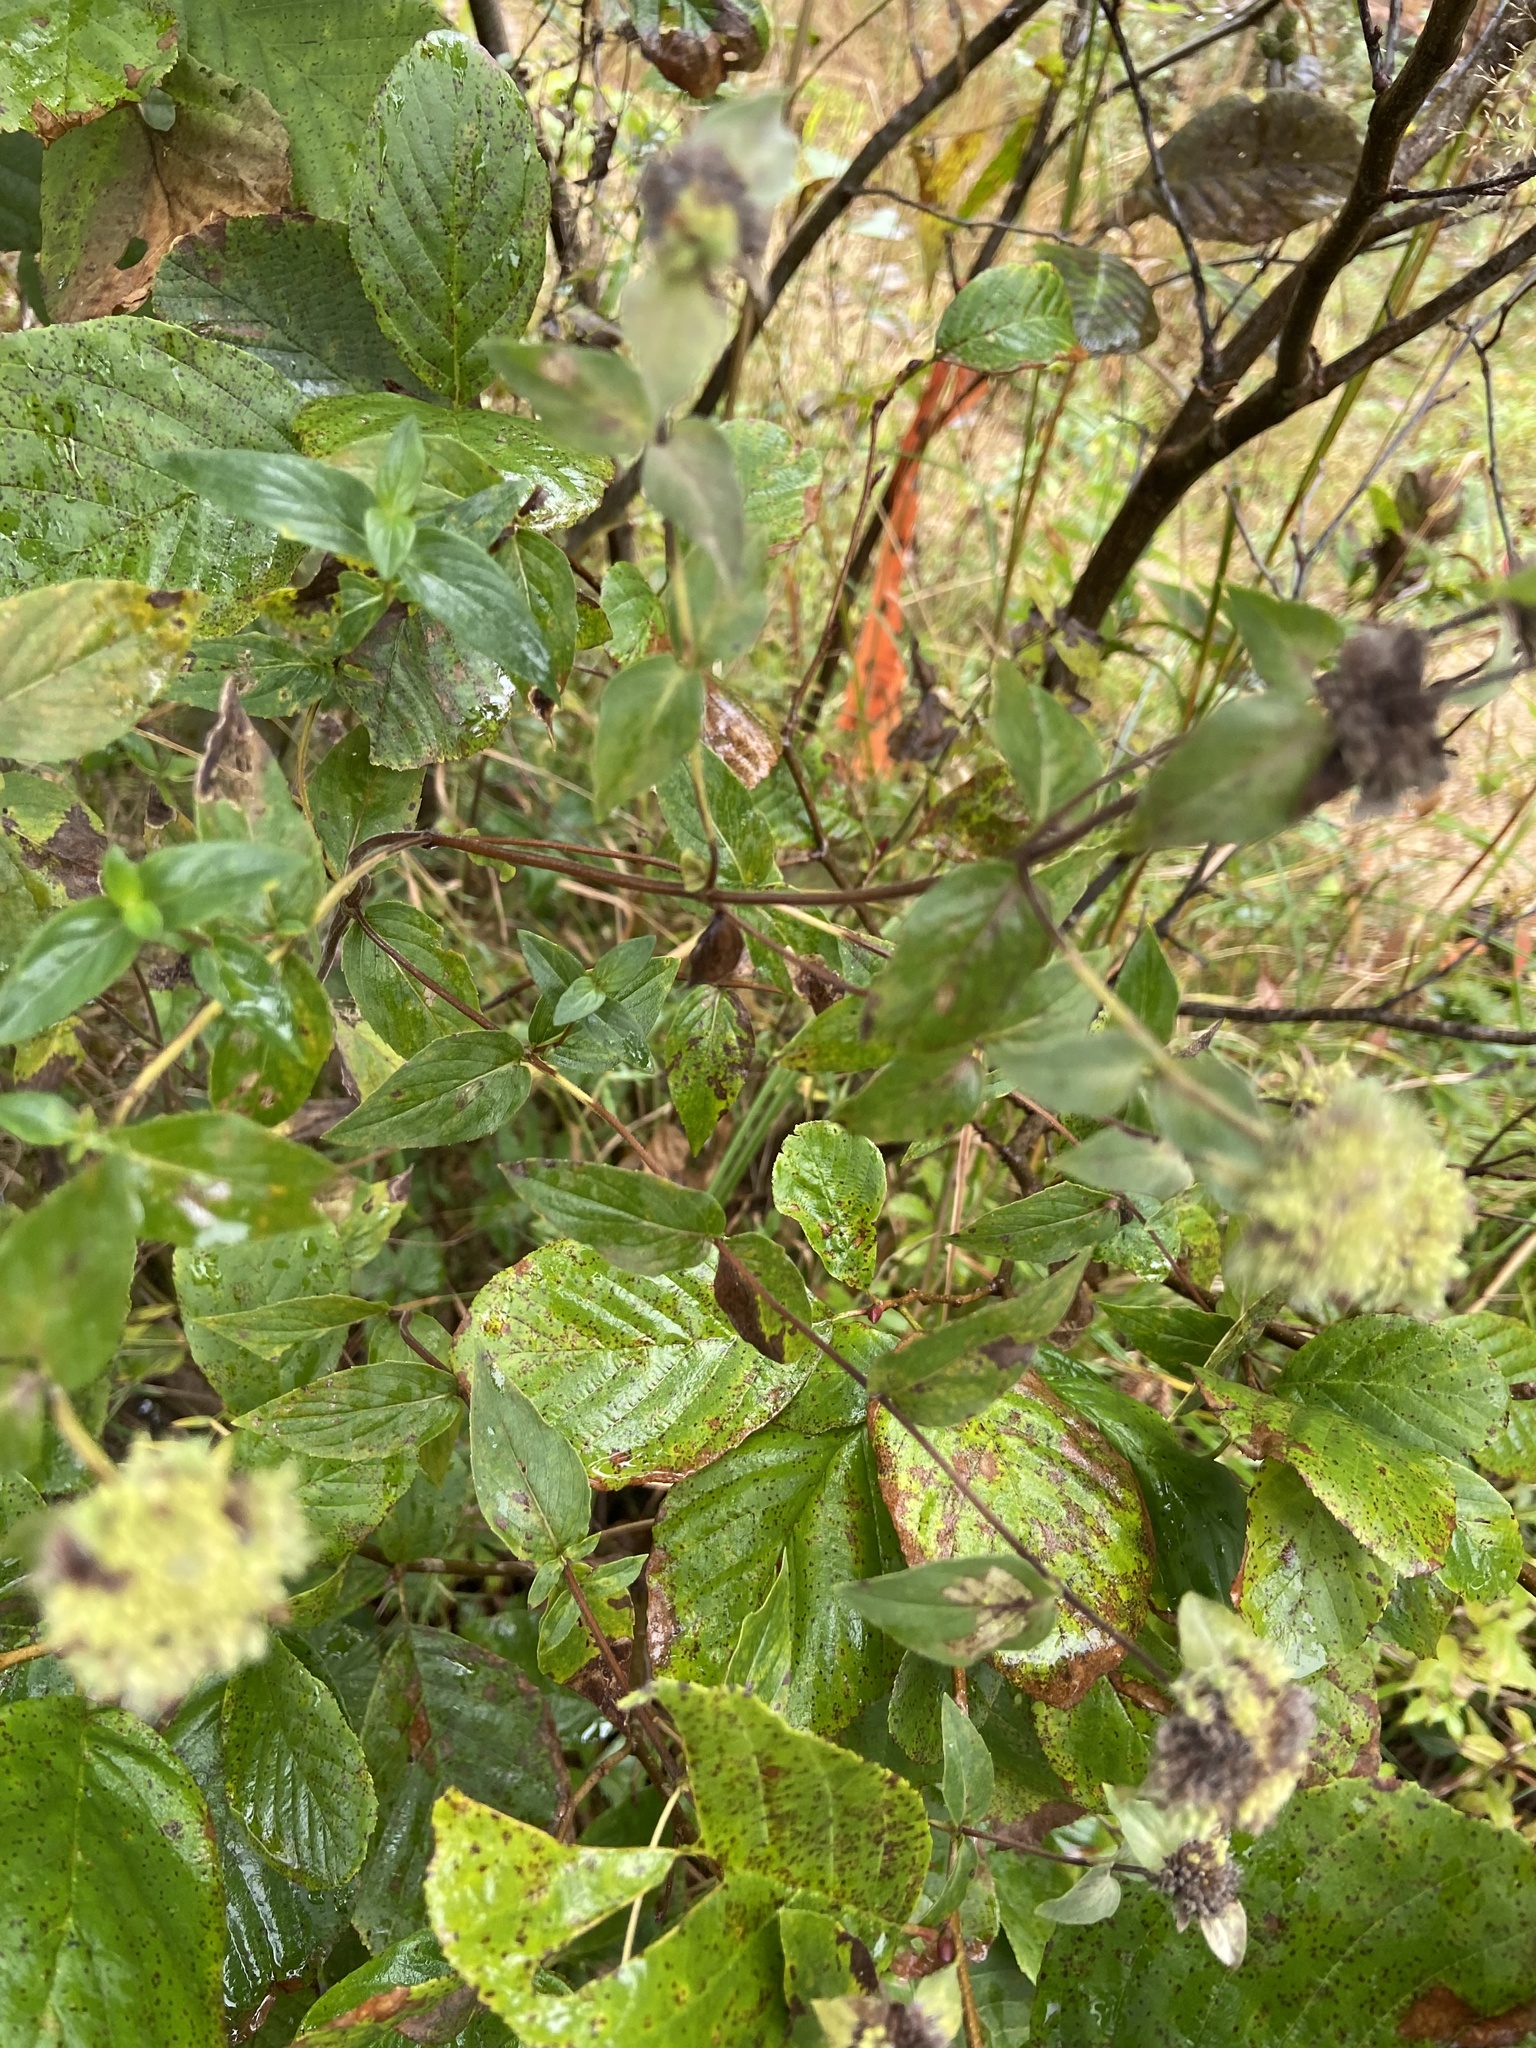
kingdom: Plantae
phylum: Tracheophyta
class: Magnoliopsida
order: Lamiales
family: Lamiaceae
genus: Pycnanthemum
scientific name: Pycnanthemum muticum
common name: Blunt mountain-mint
